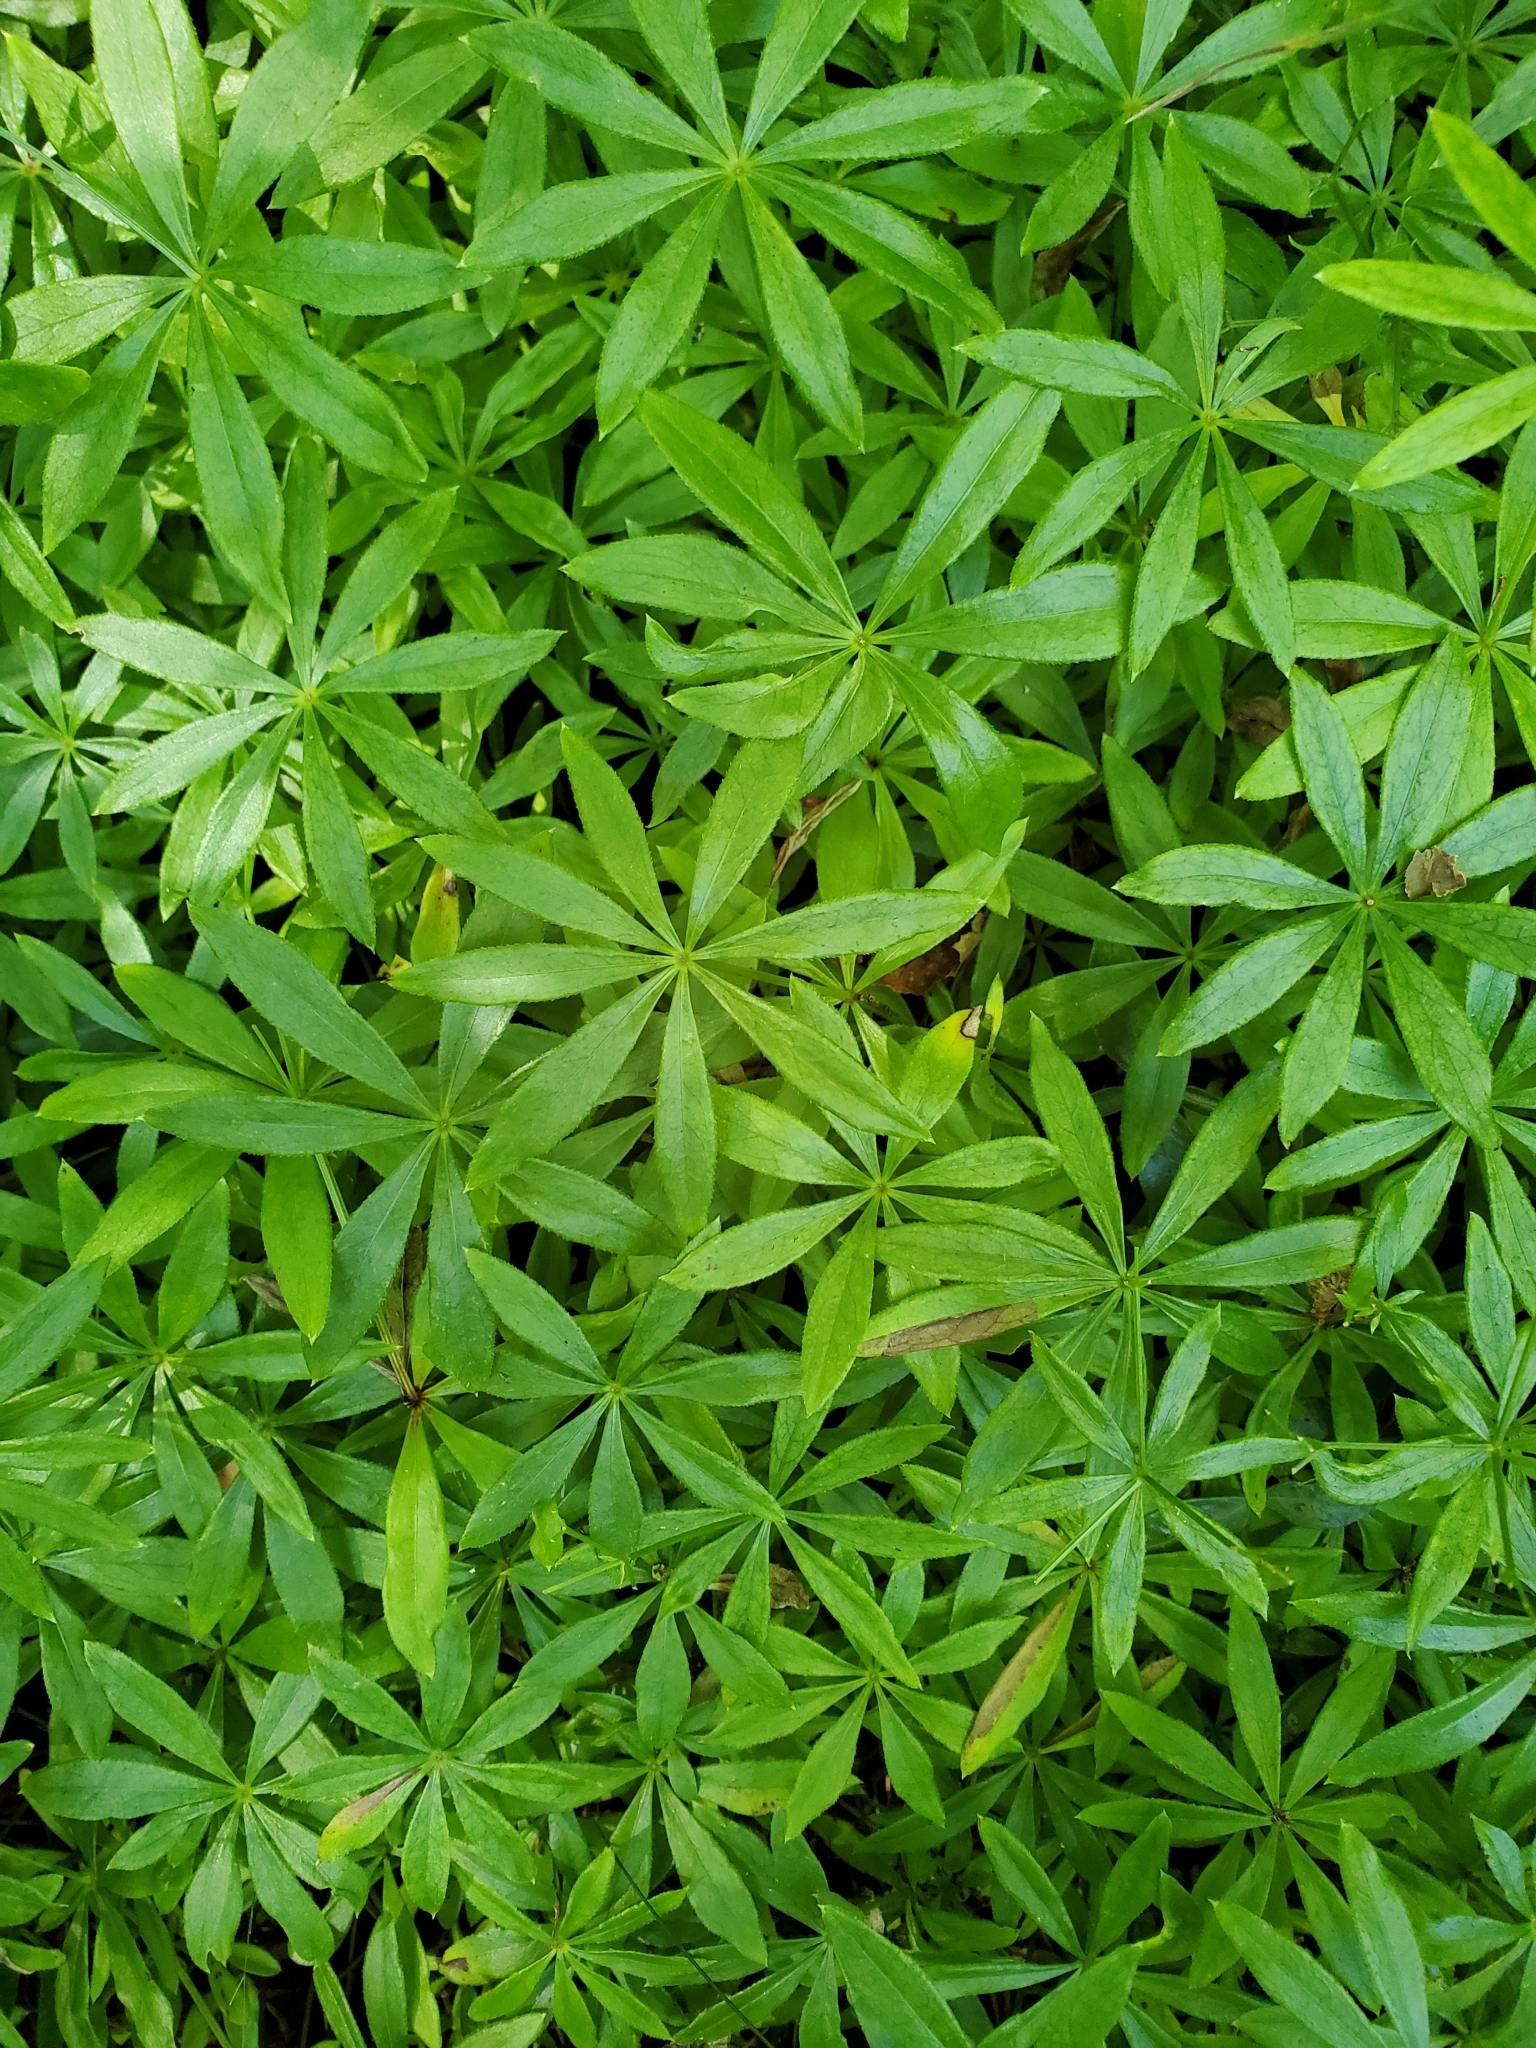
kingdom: Plantae
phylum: Tracheophyta
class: Magnoliopsida
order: Gentianales
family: Rubiaceae
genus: Galium
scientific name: Galium odoratum
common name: Sweet woodruff
